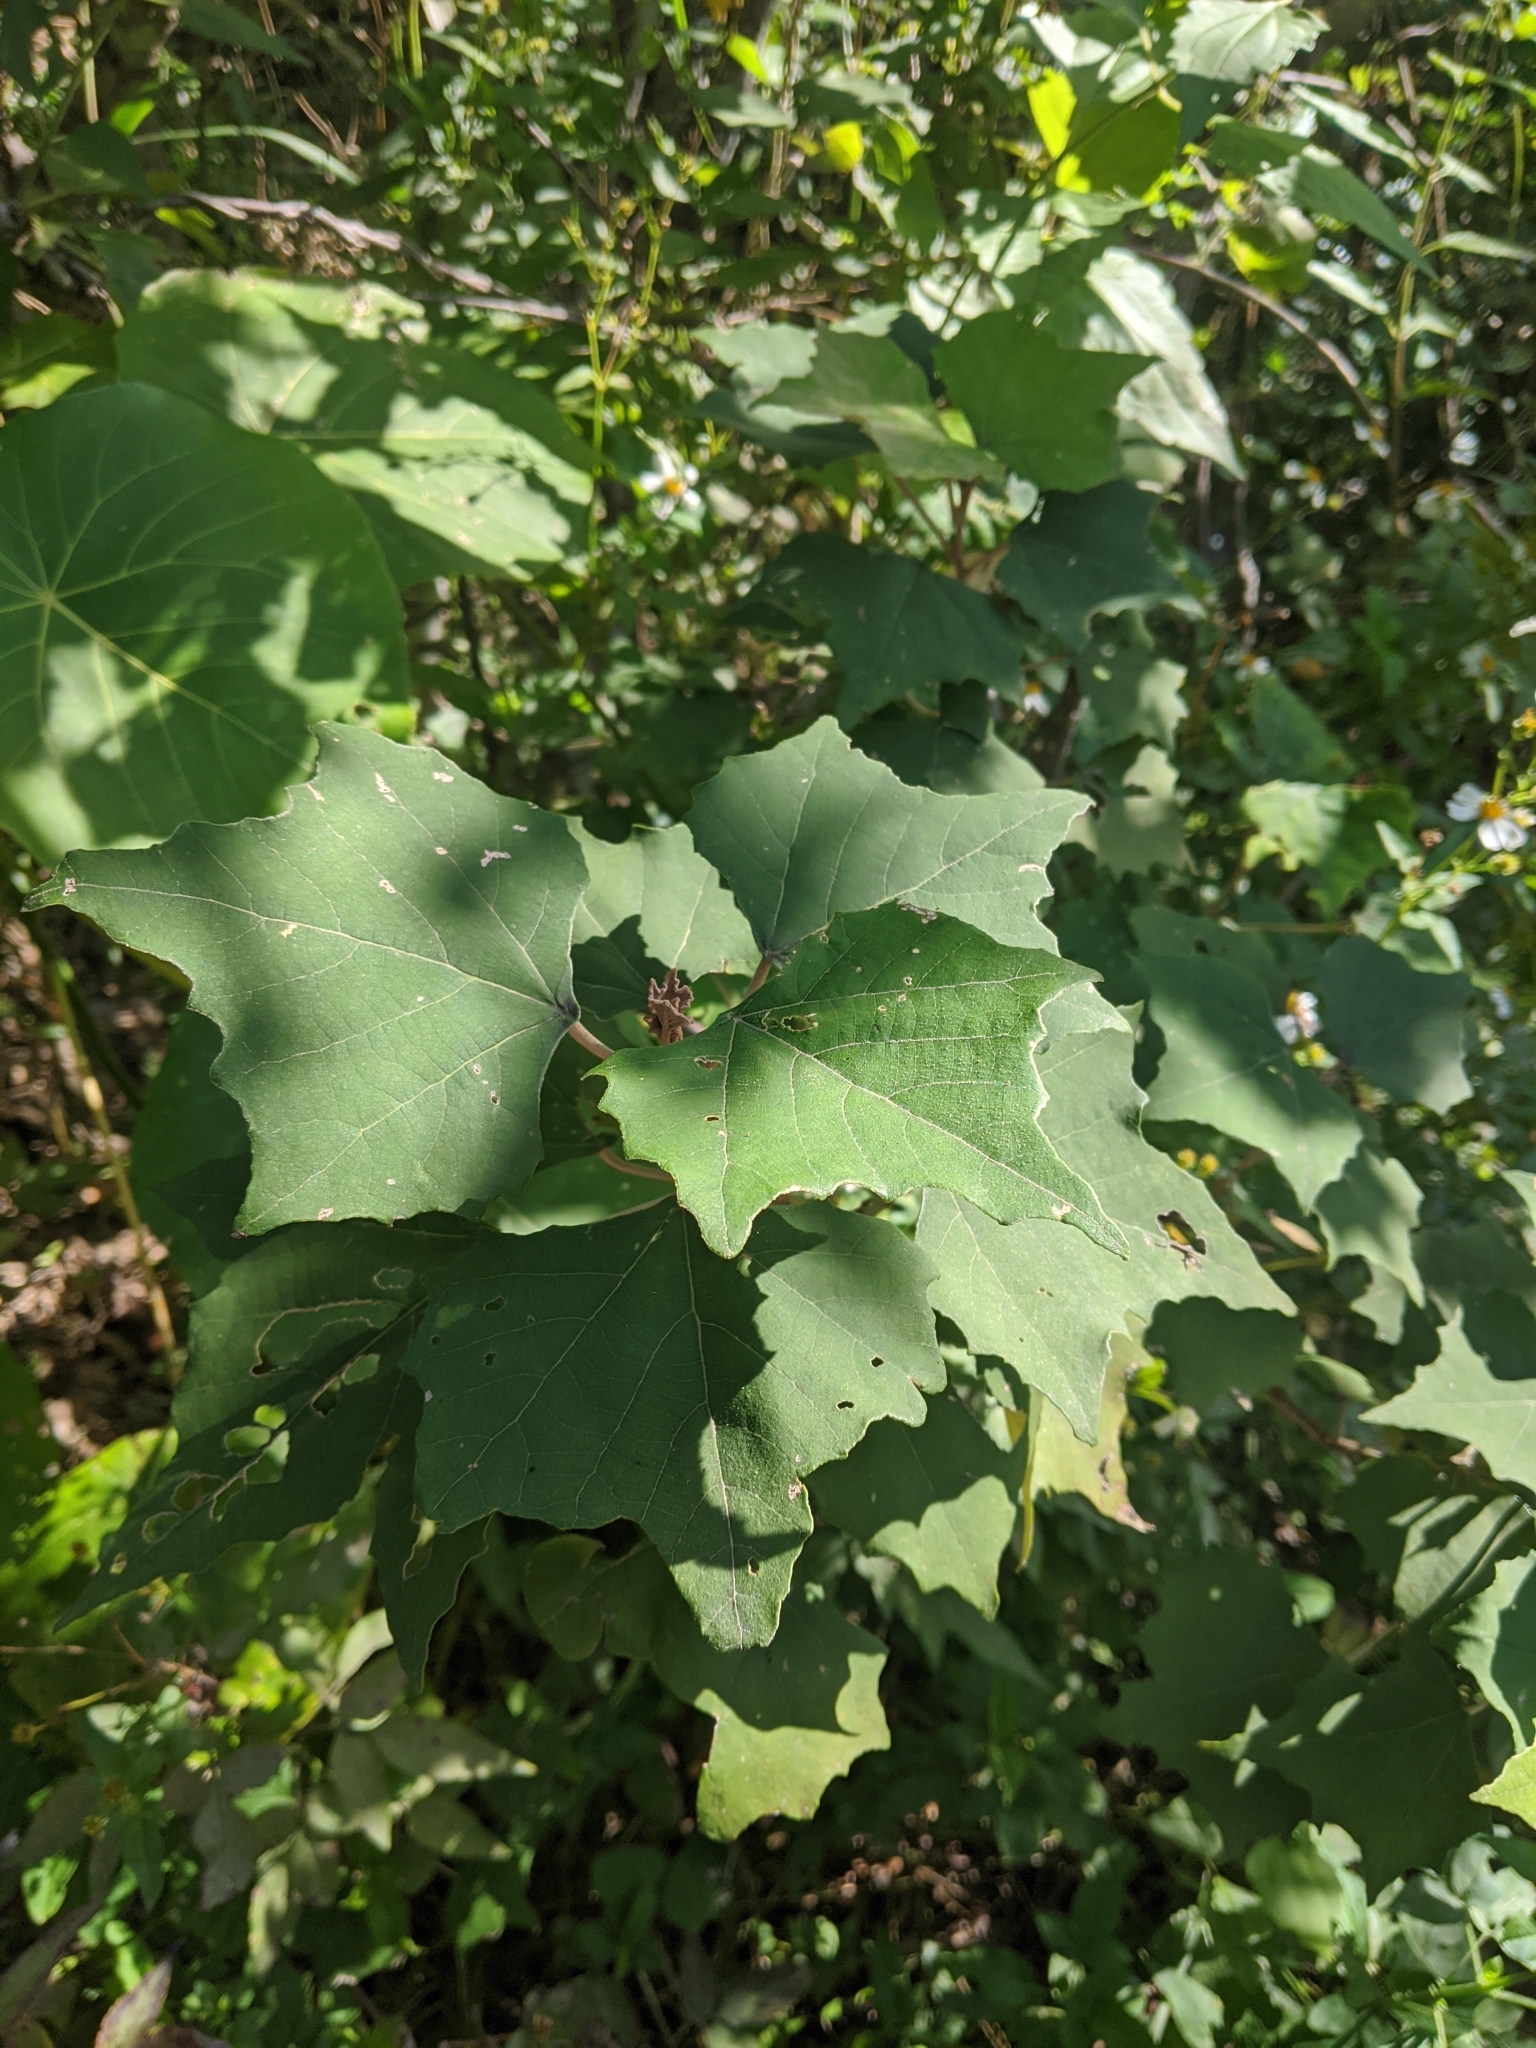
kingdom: Plantae
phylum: Tracheophyta
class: Magnoliopsida
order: Malpighiales
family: Euphorbiaceae
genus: Mallotus
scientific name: Mallotus paniculatus
